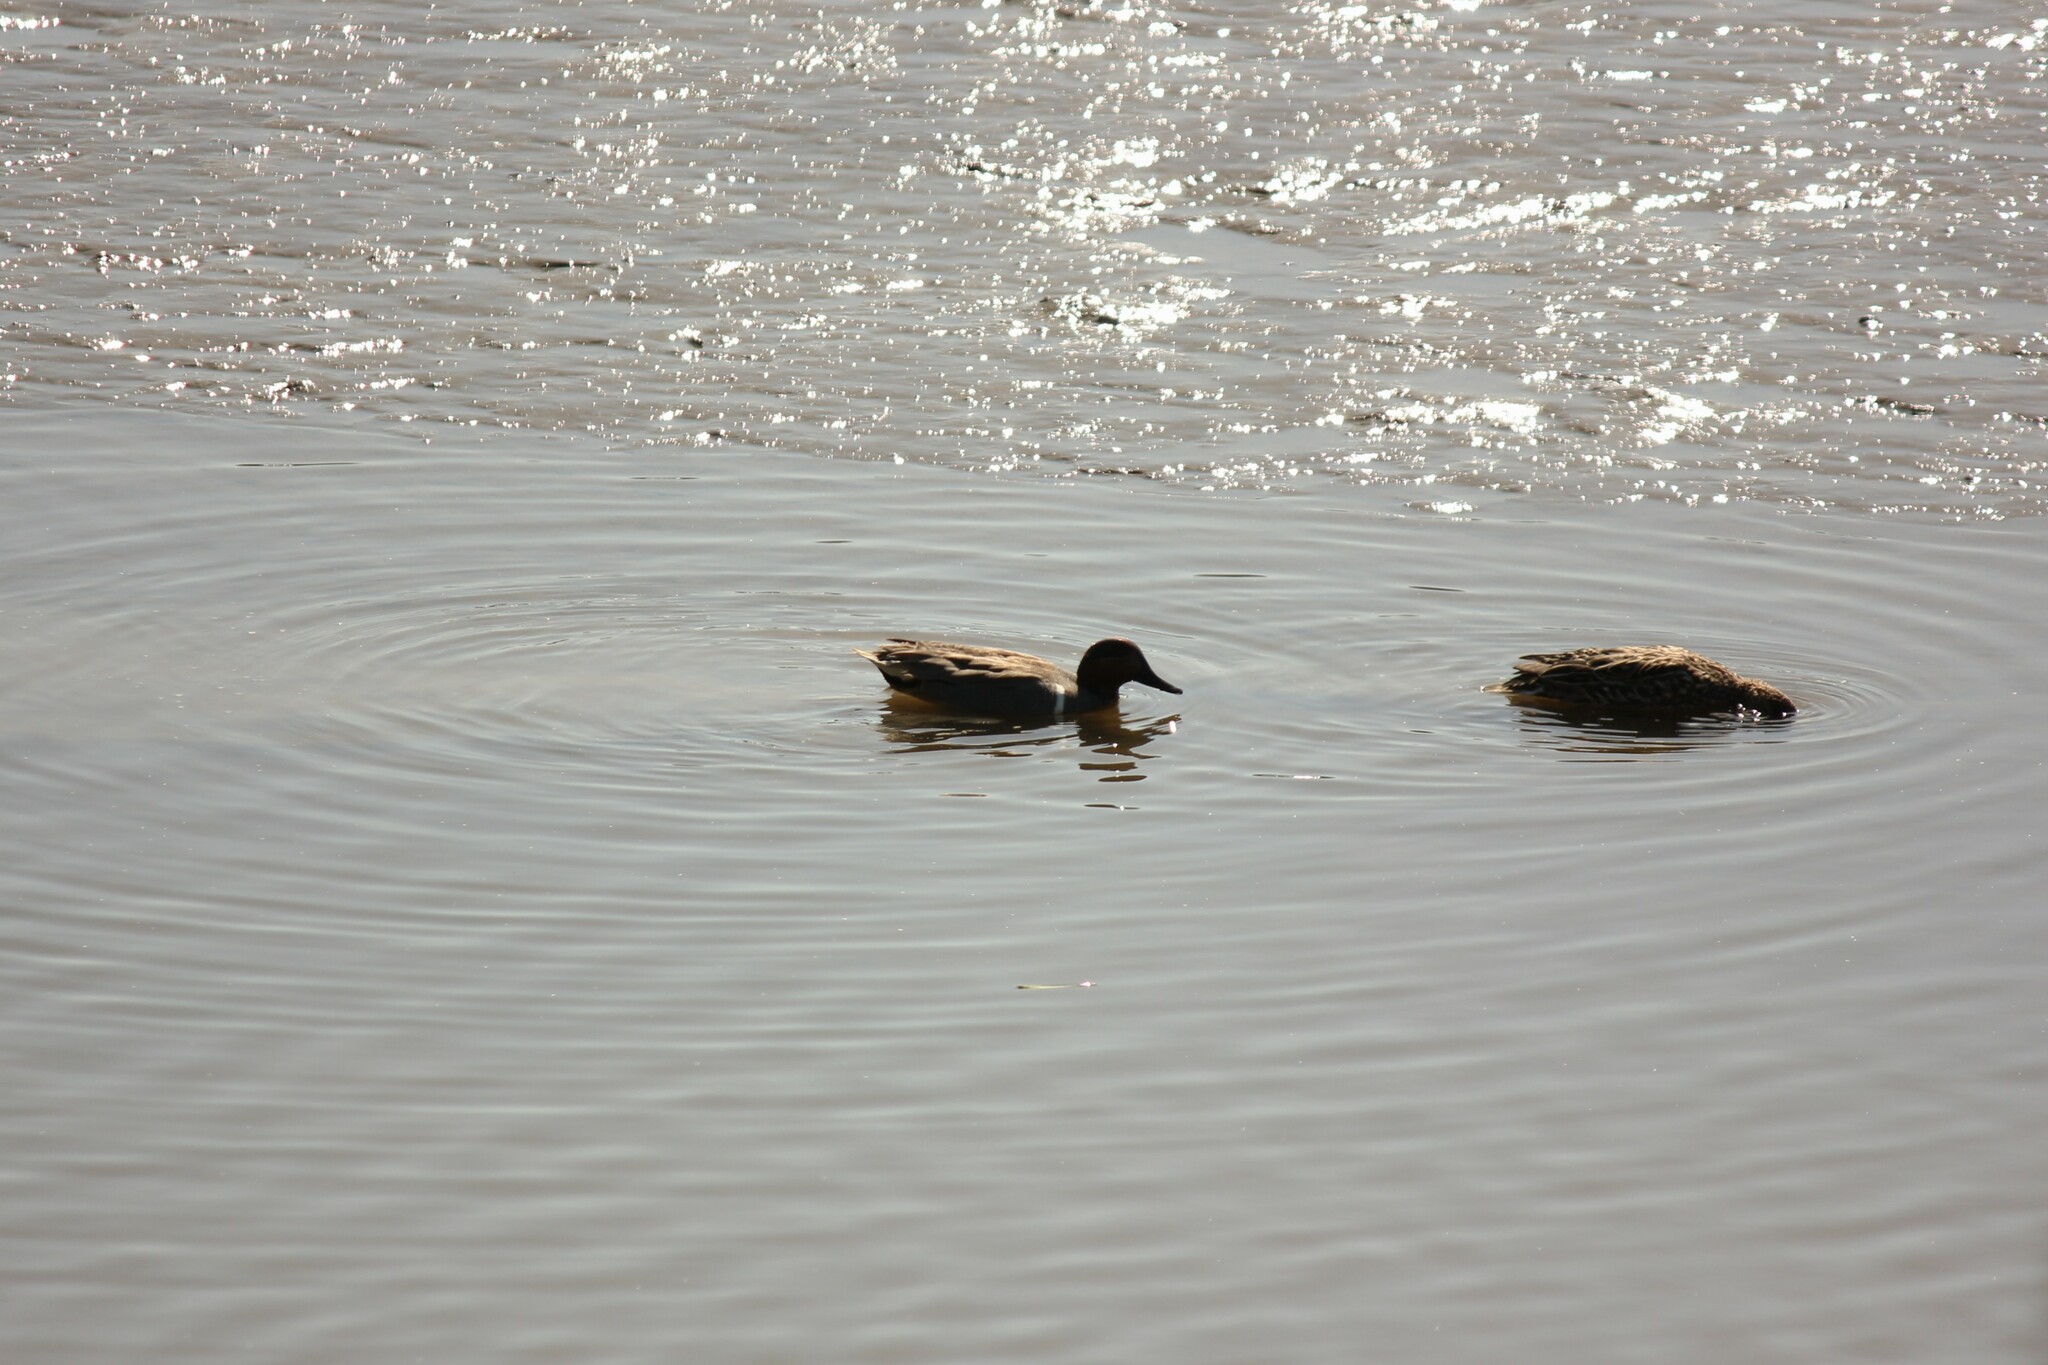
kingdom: Animalia
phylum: Chordata
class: Aves
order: Anseriformes
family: Anatidae
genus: Anas
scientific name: Anas crecca
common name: Eurasian teal
